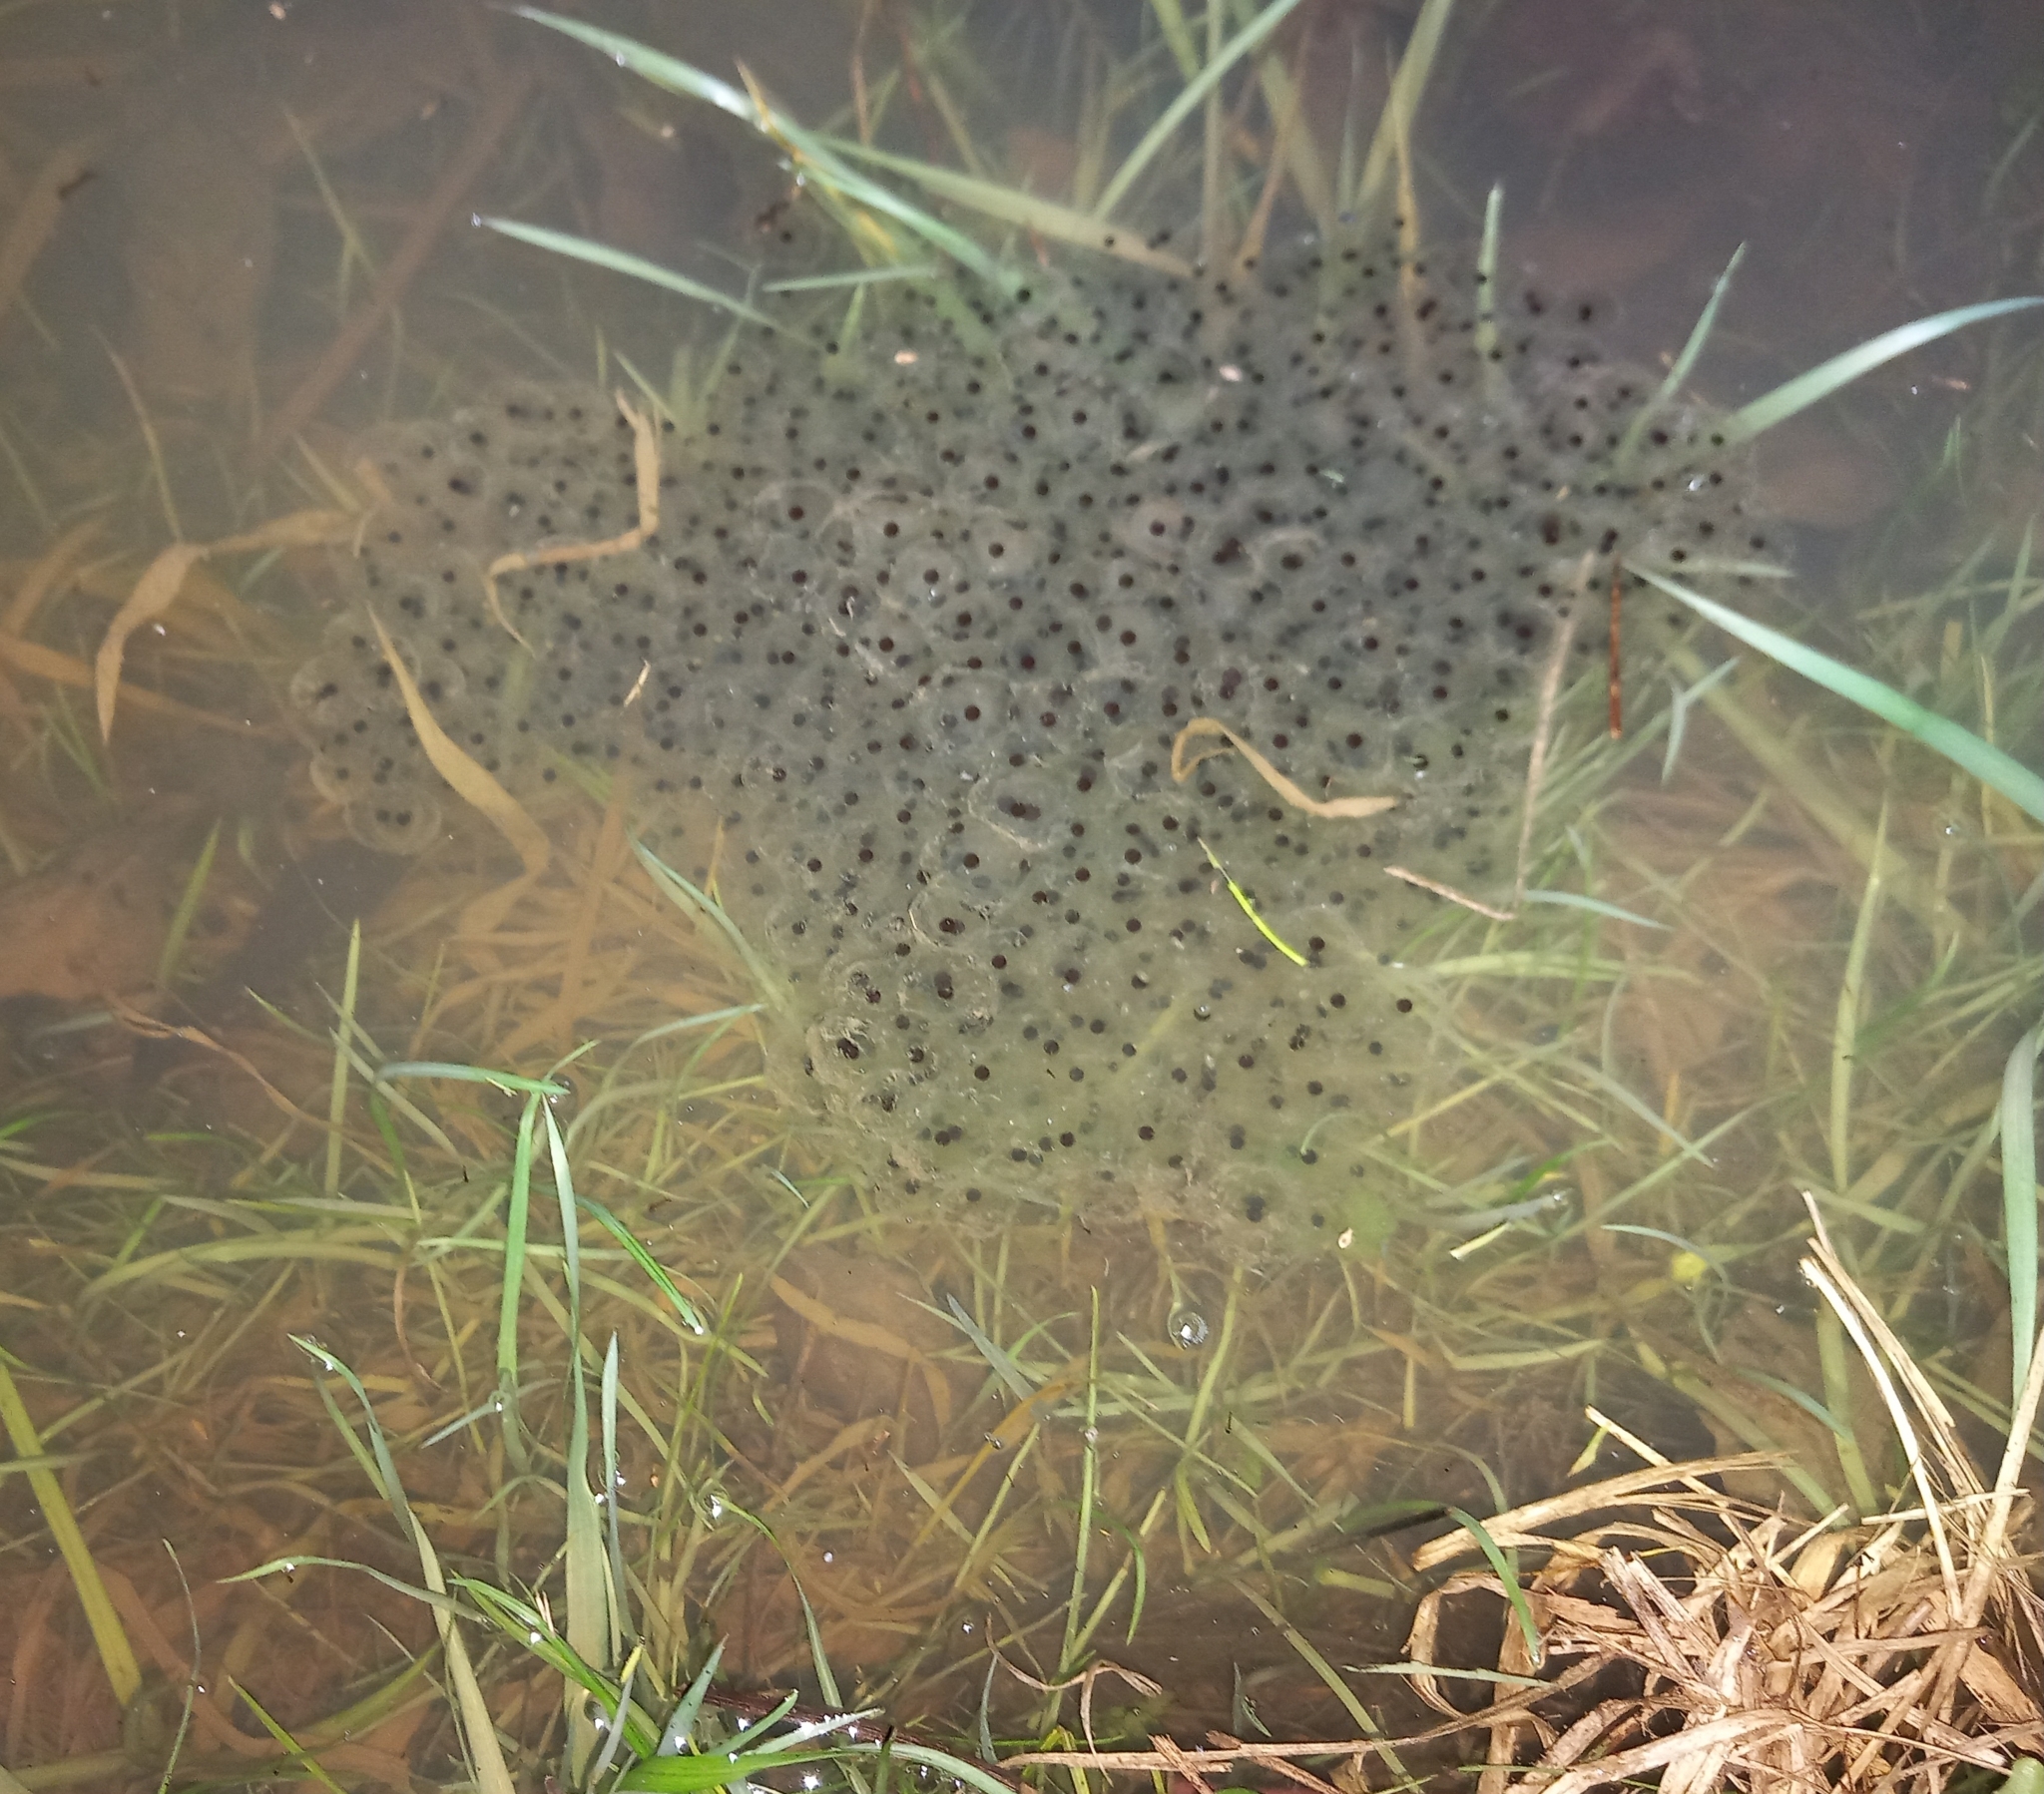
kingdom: Animalia
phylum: Chordata
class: Amphibia
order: Anura
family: Ranidae
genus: Rana
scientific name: Rana temporaria
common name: Common frog
